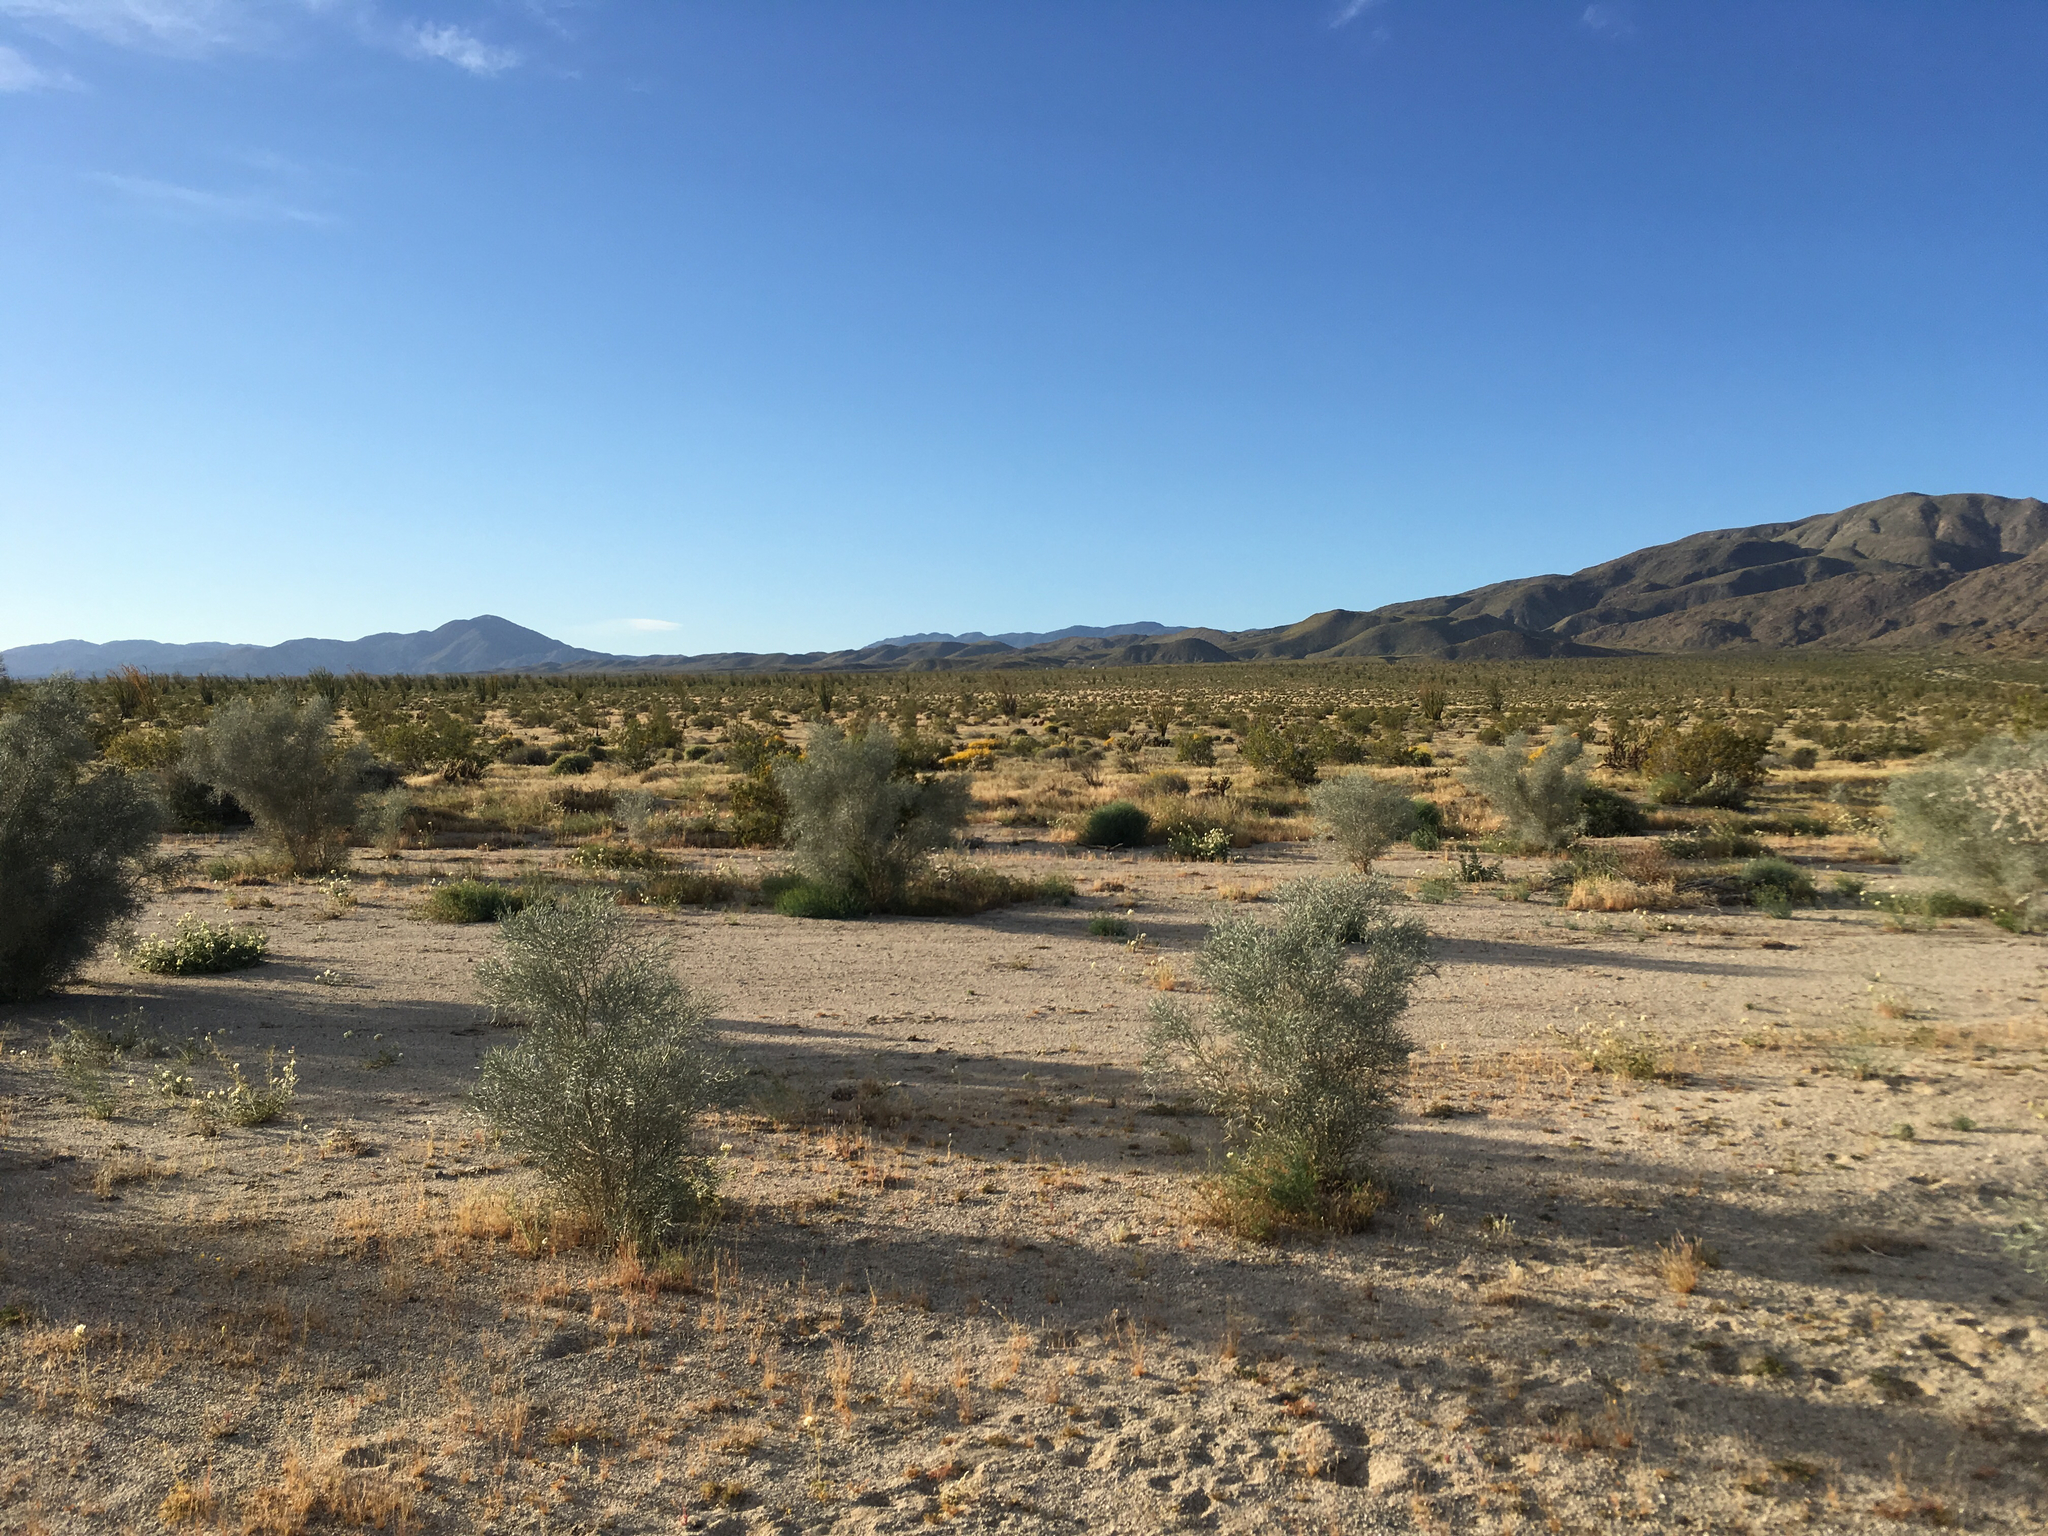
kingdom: Plantae
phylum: Tracheophyta
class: Magnoliopsida
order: Fabales
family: Fabaceae
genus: Psorothamnus
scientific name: Psorothamnus spinosus
